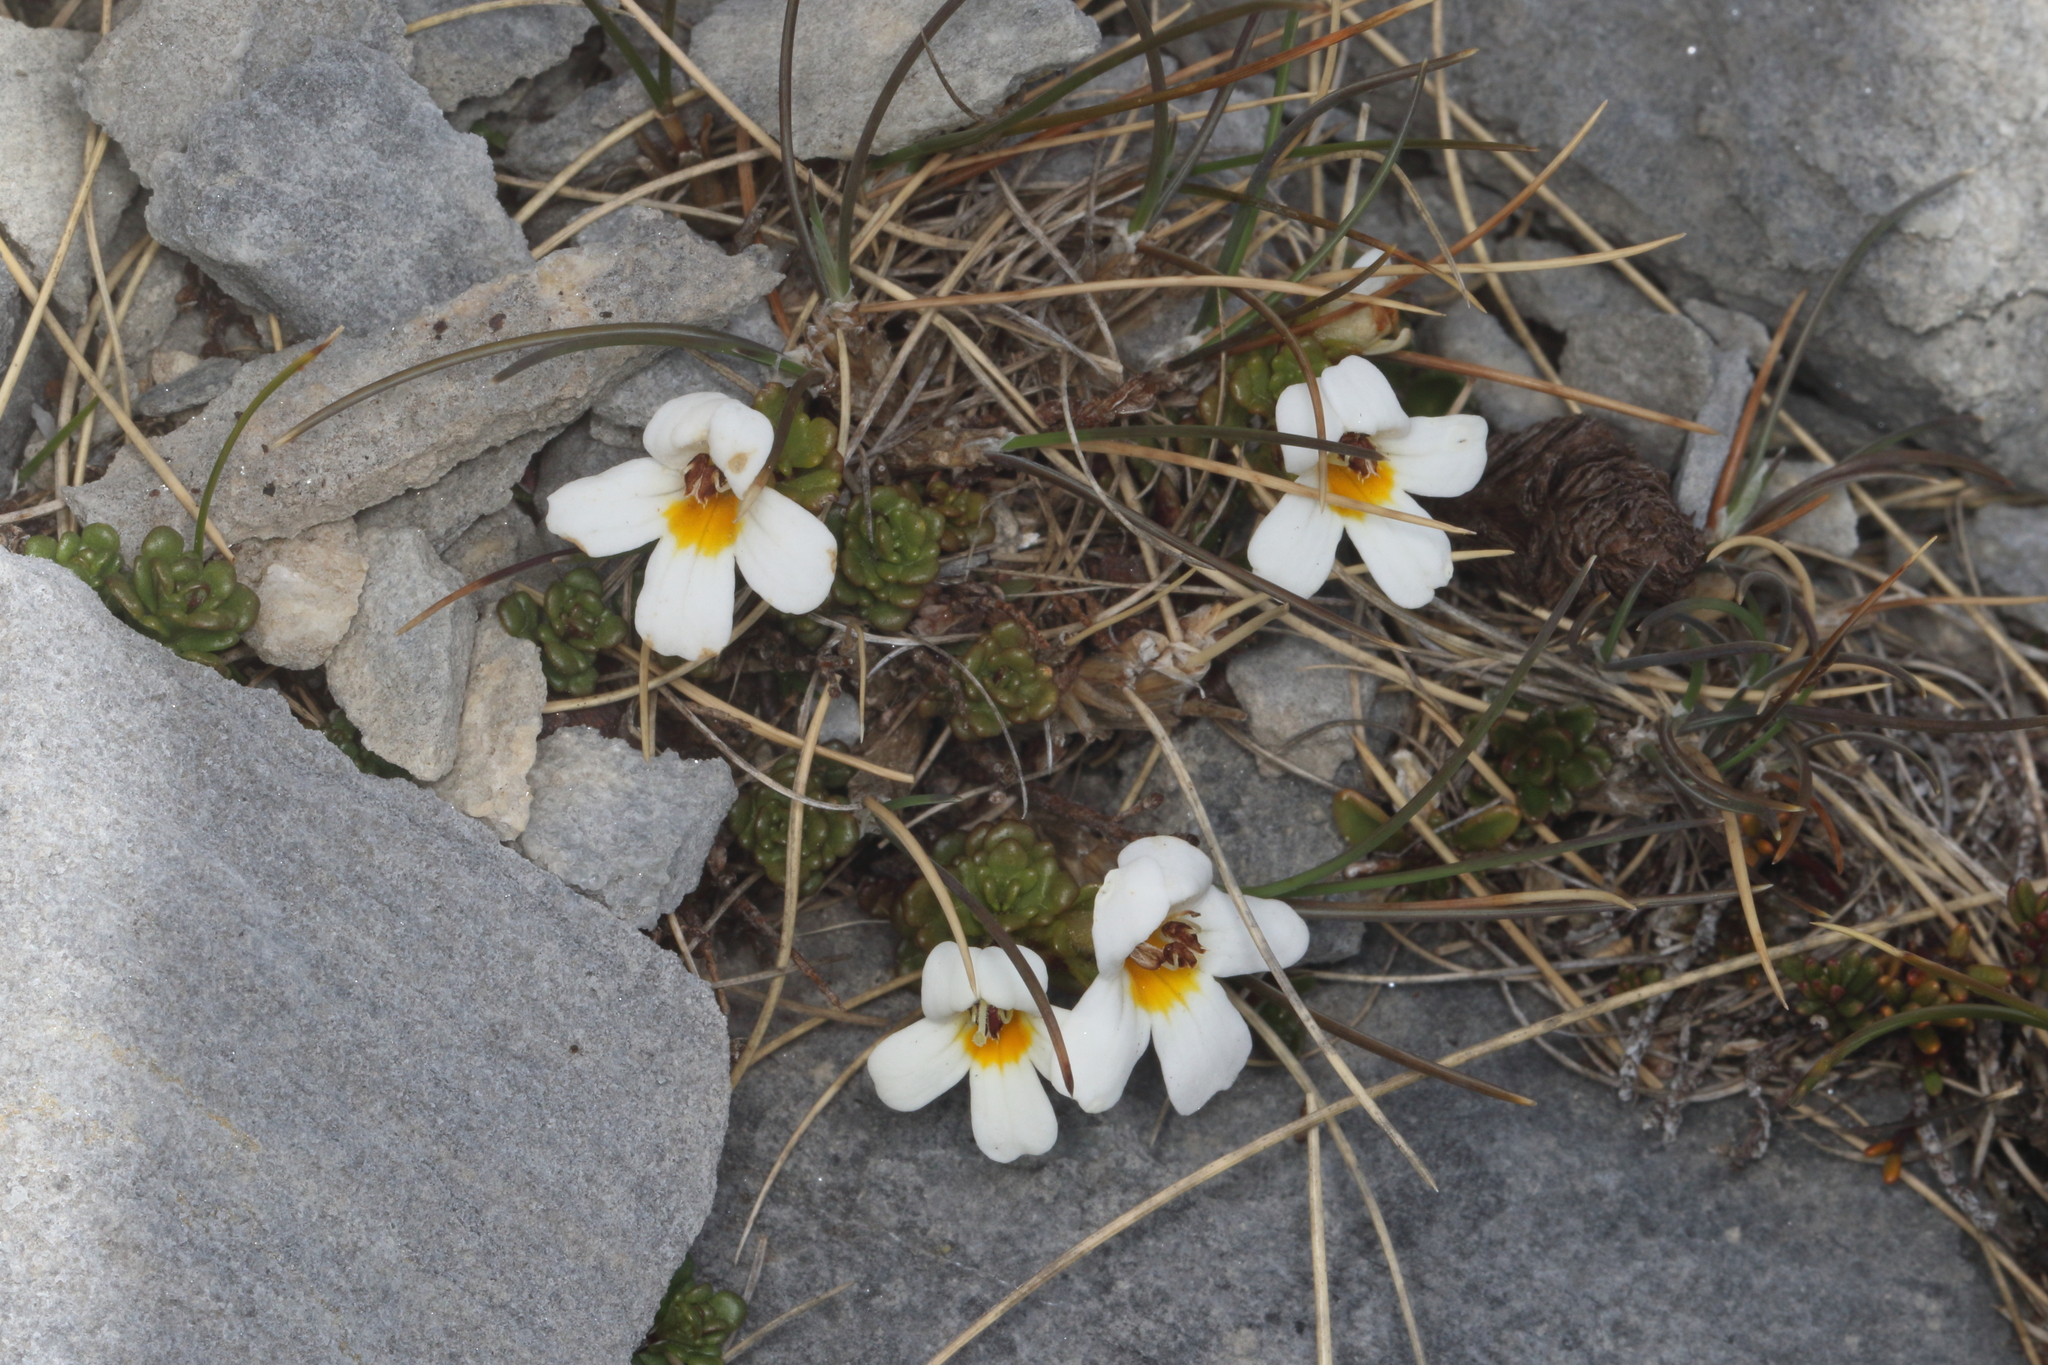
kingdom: Plantae
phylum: Tracheophyta
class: Magnoliopsida
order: Lamiales
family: Orobanchaceae
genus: Euphrasia
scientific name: Euphrasia revoluta
